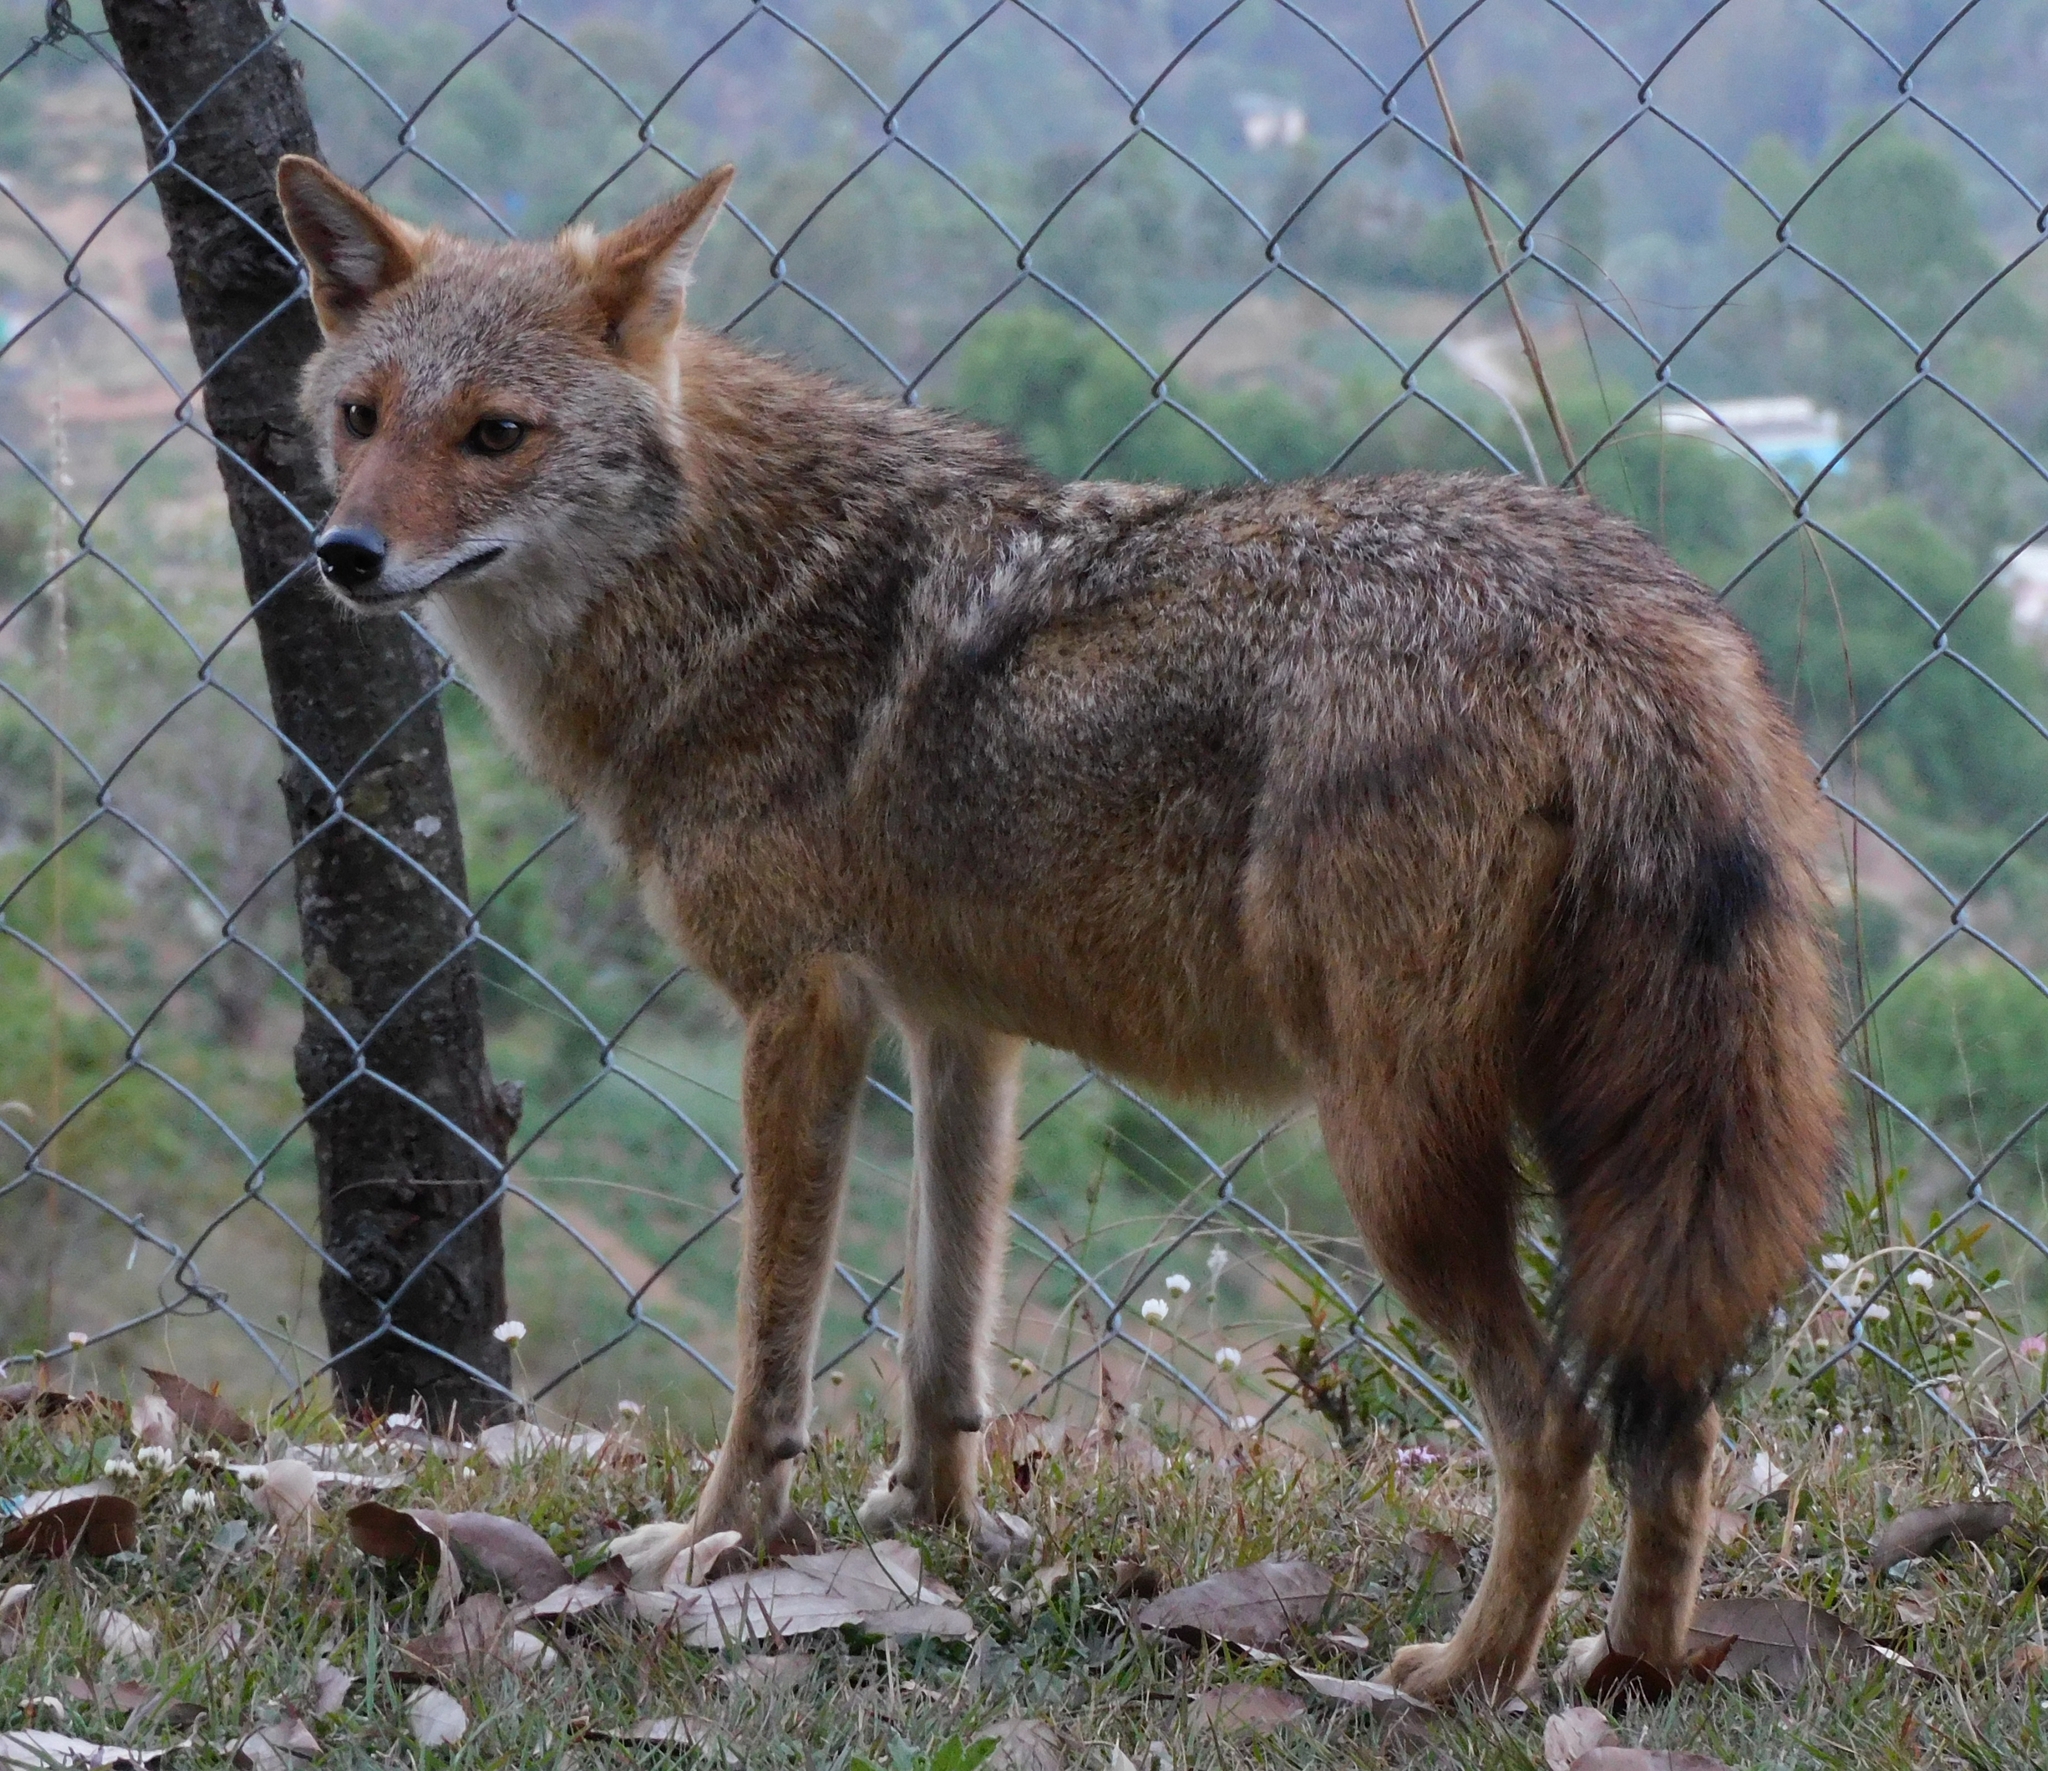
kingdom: Animalia
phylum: Chordata
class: Mammalia
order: Carnivora
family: Canidae
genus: Canis
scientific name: Canis aureus
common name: Golden jackal
